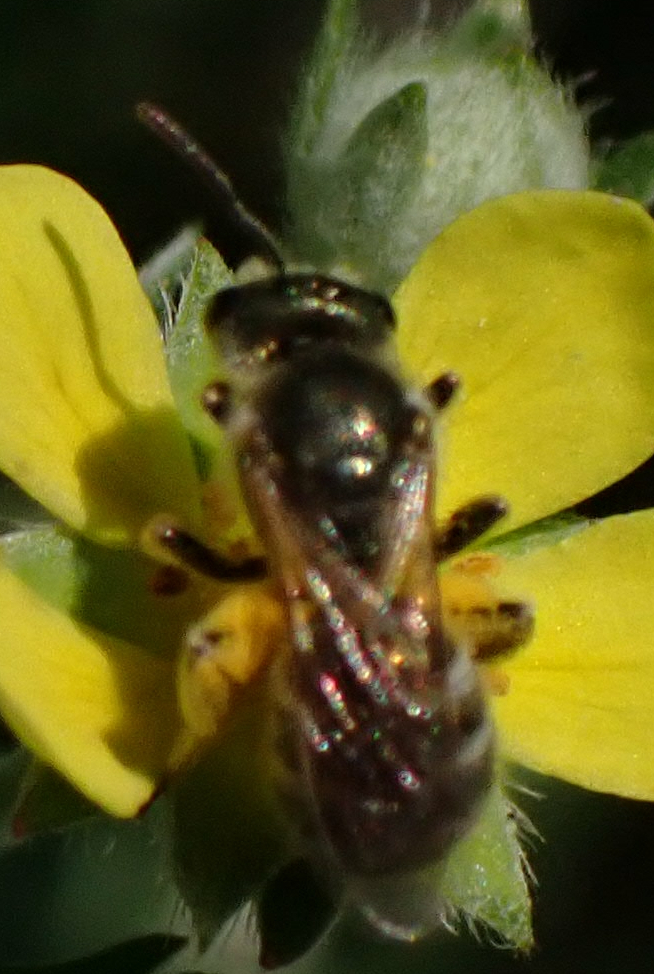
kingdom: Animalia
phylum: Arthropoda
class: Insecta
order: Hymenoptera
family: Halictidae
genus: Halictus
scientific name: Halictus confusus
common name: Southern bronze furrow bee
